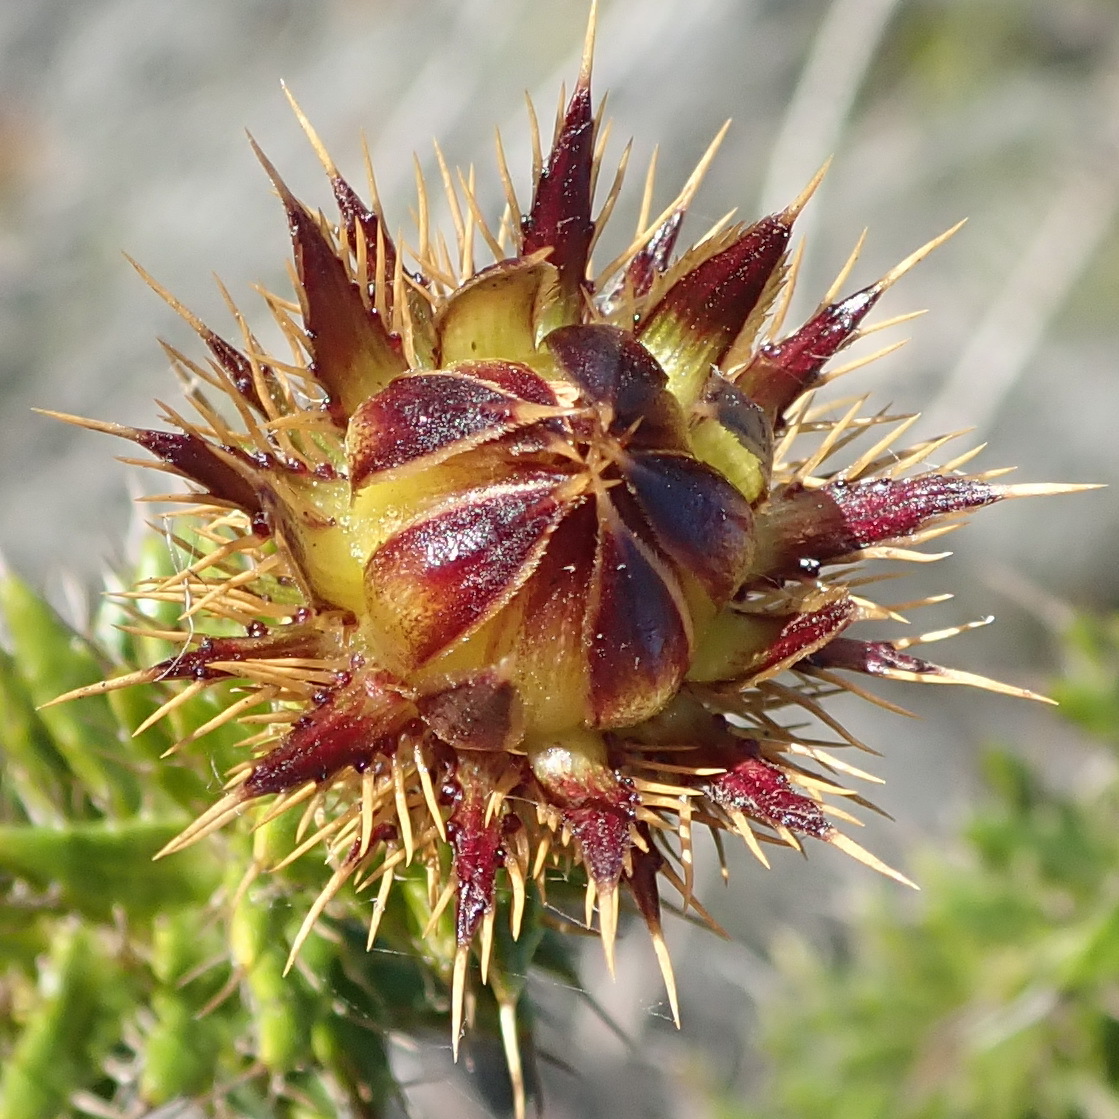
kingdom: Plantae
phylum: Tracheophyta
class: Magnoliopsida
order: Asterales
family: Asteraceae
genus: Cullumia
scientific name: Cullumia carlinoides
